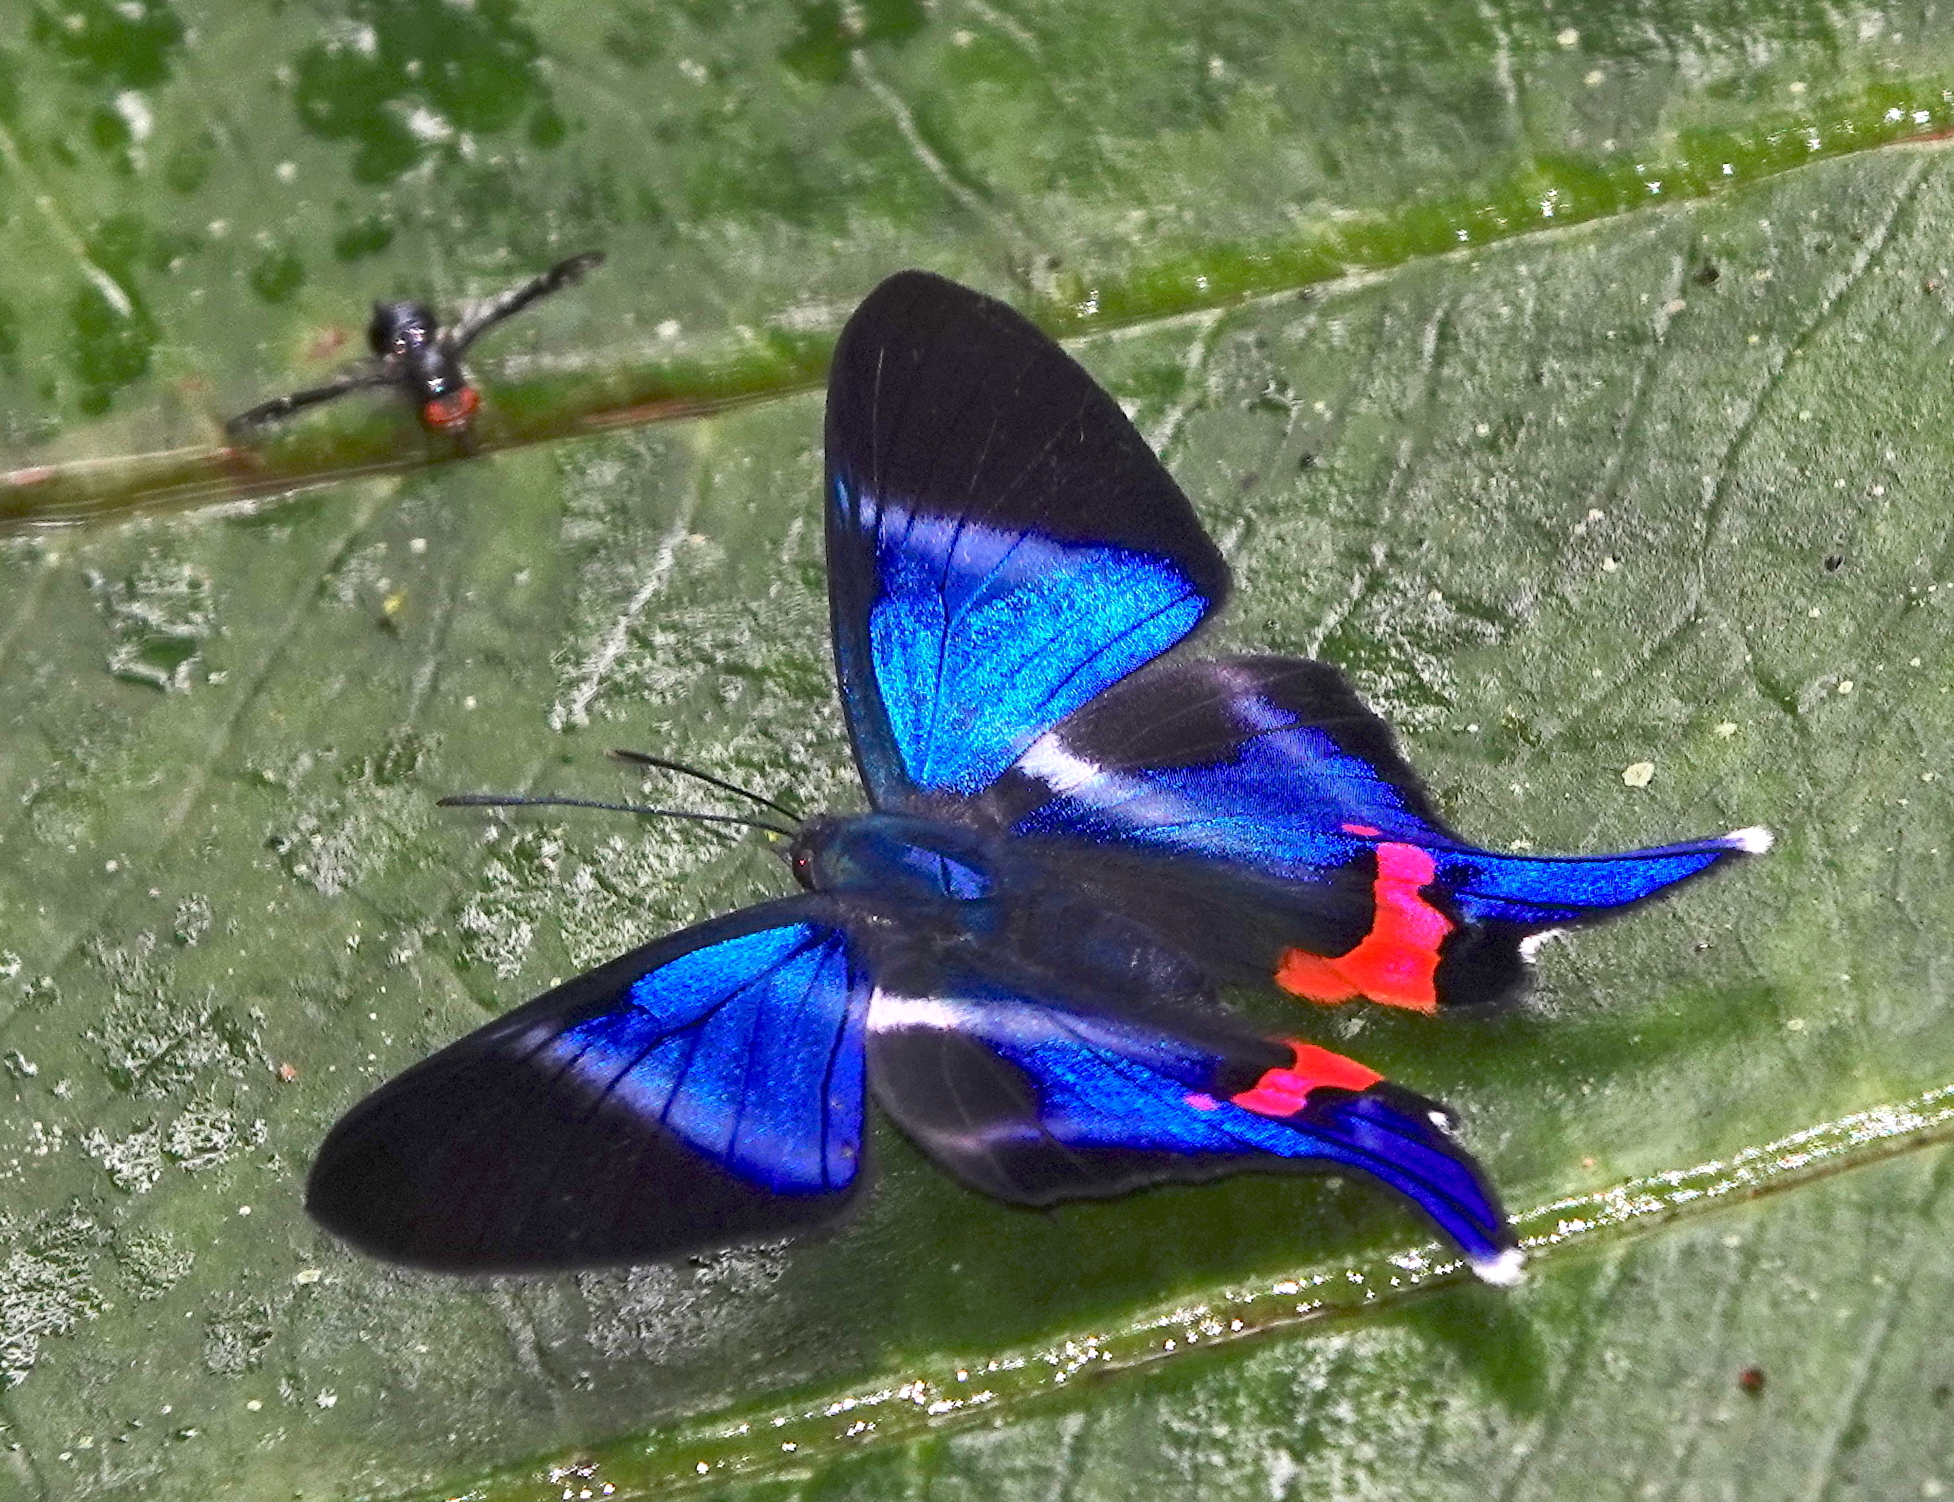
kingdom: Animalia
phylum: Arthropoda
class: Insecta
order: Lepidoptera
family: Riodinidae
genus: Rhetus
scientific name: Rhetus dysonii
